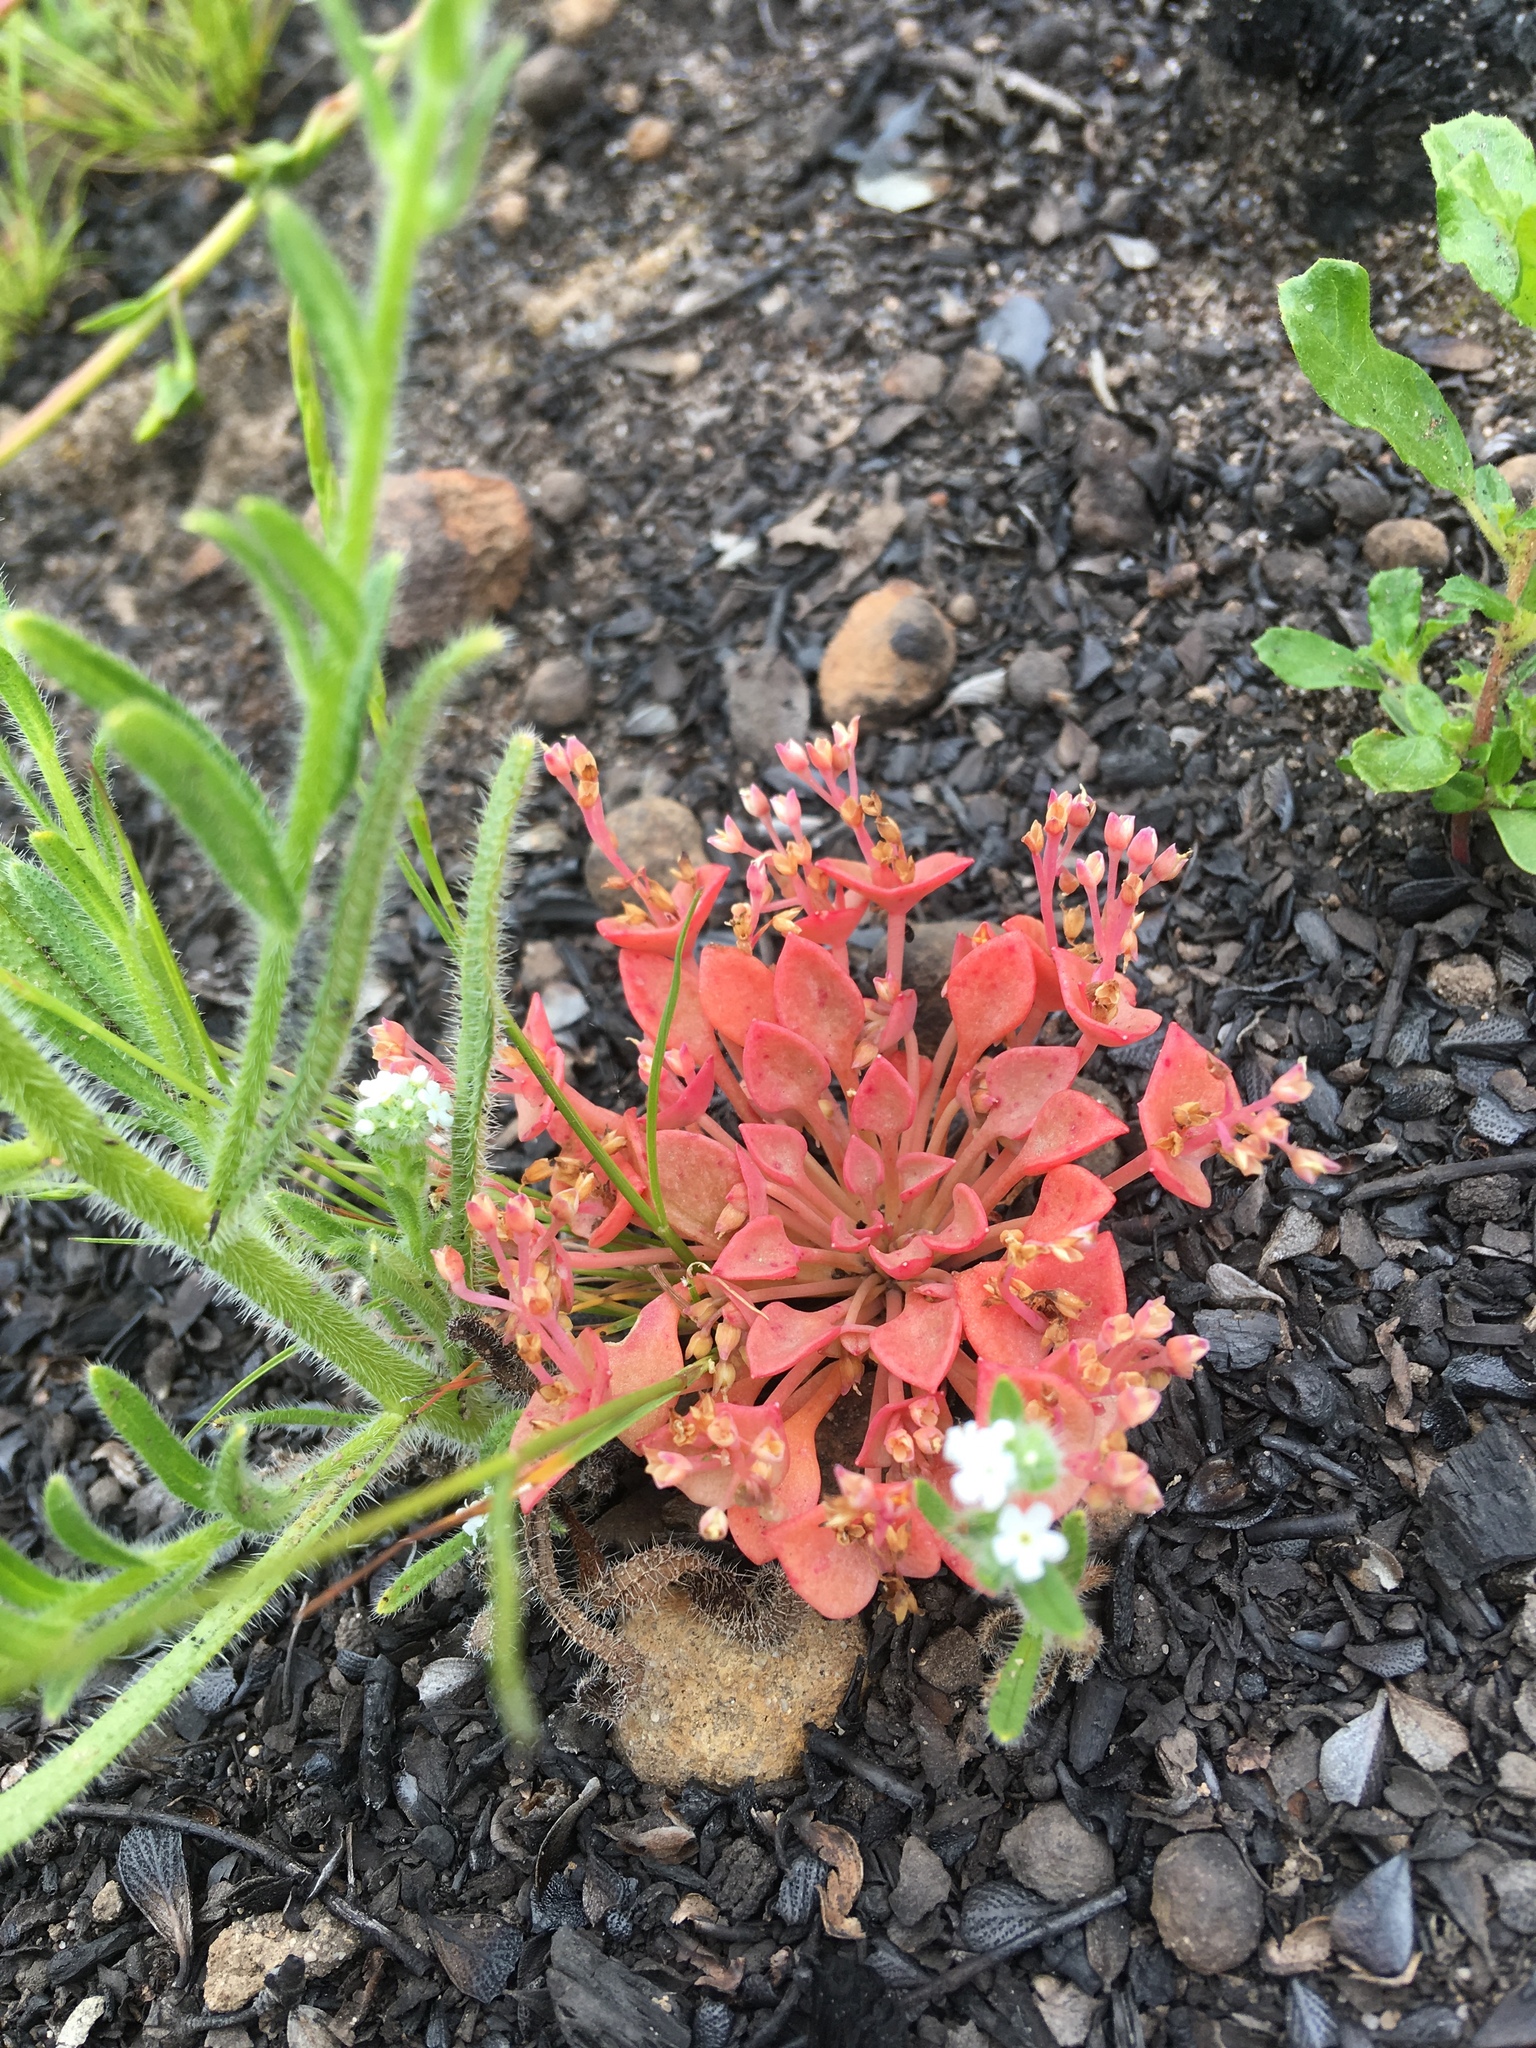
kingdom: Plantae
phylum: Tracheophyta
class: Magnoliopsida
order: Caryophyllales
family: Montiaceae
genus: Claytonia
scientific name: Claytonia rubra
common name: Erubescent miner's-lettuce
